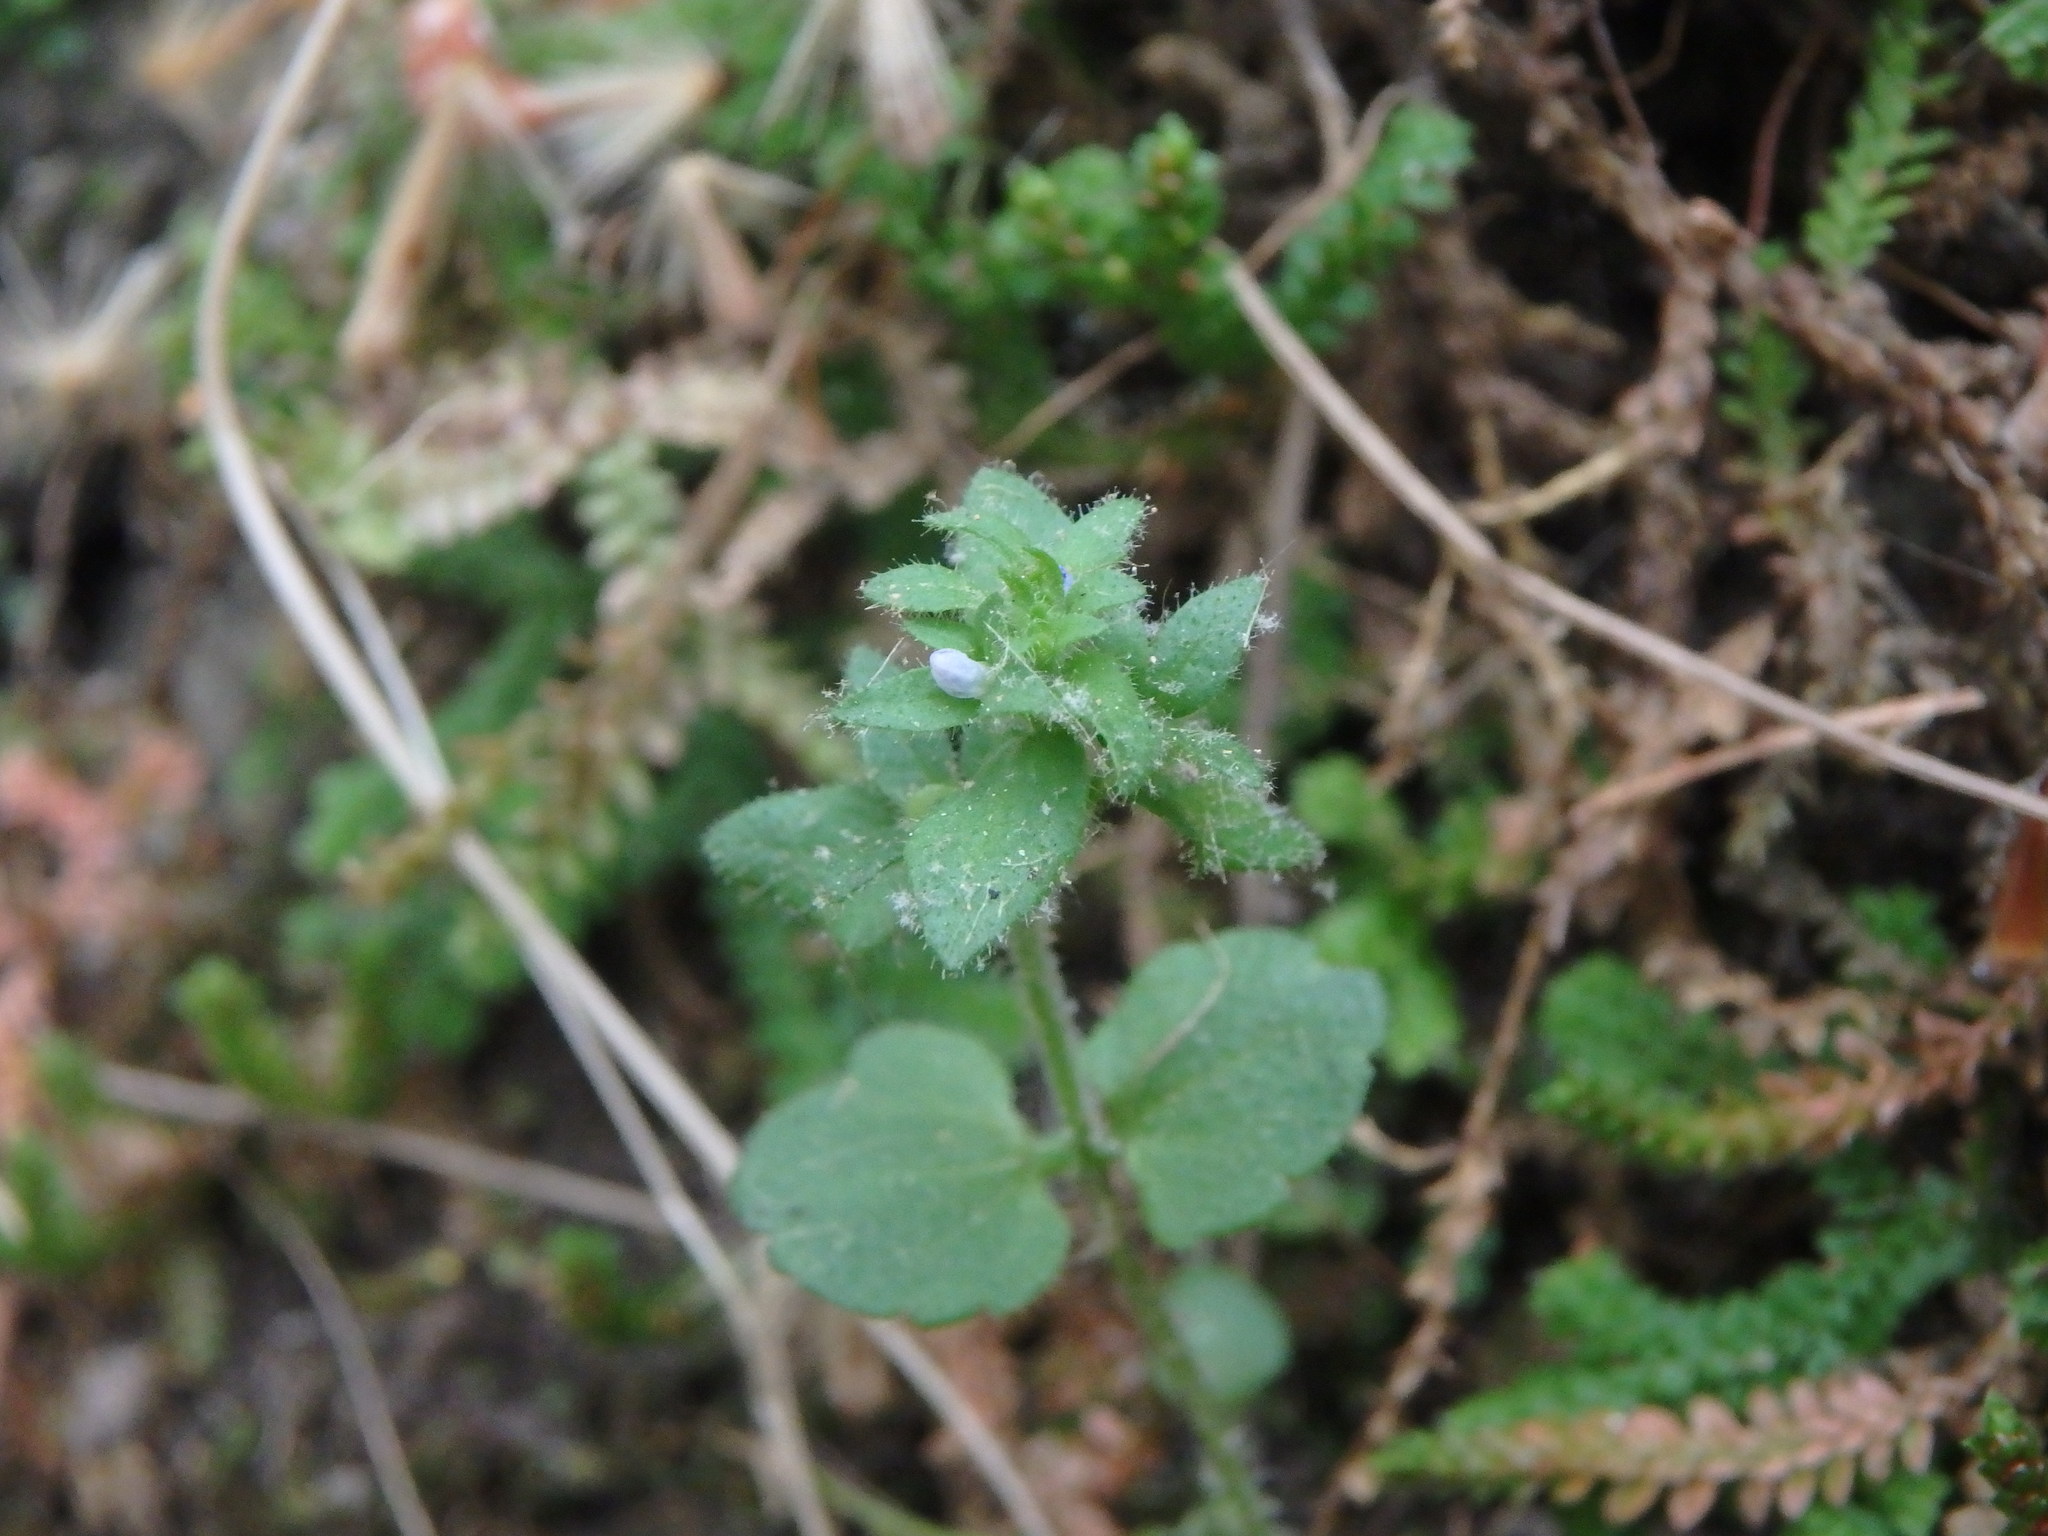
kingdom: Plantae
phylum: Tracheophyta
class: Magnoliopsida
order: Lamiales
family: Plantaginaceae
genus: Veronica
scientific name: Veronica arvensis
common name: Corn speedwell
